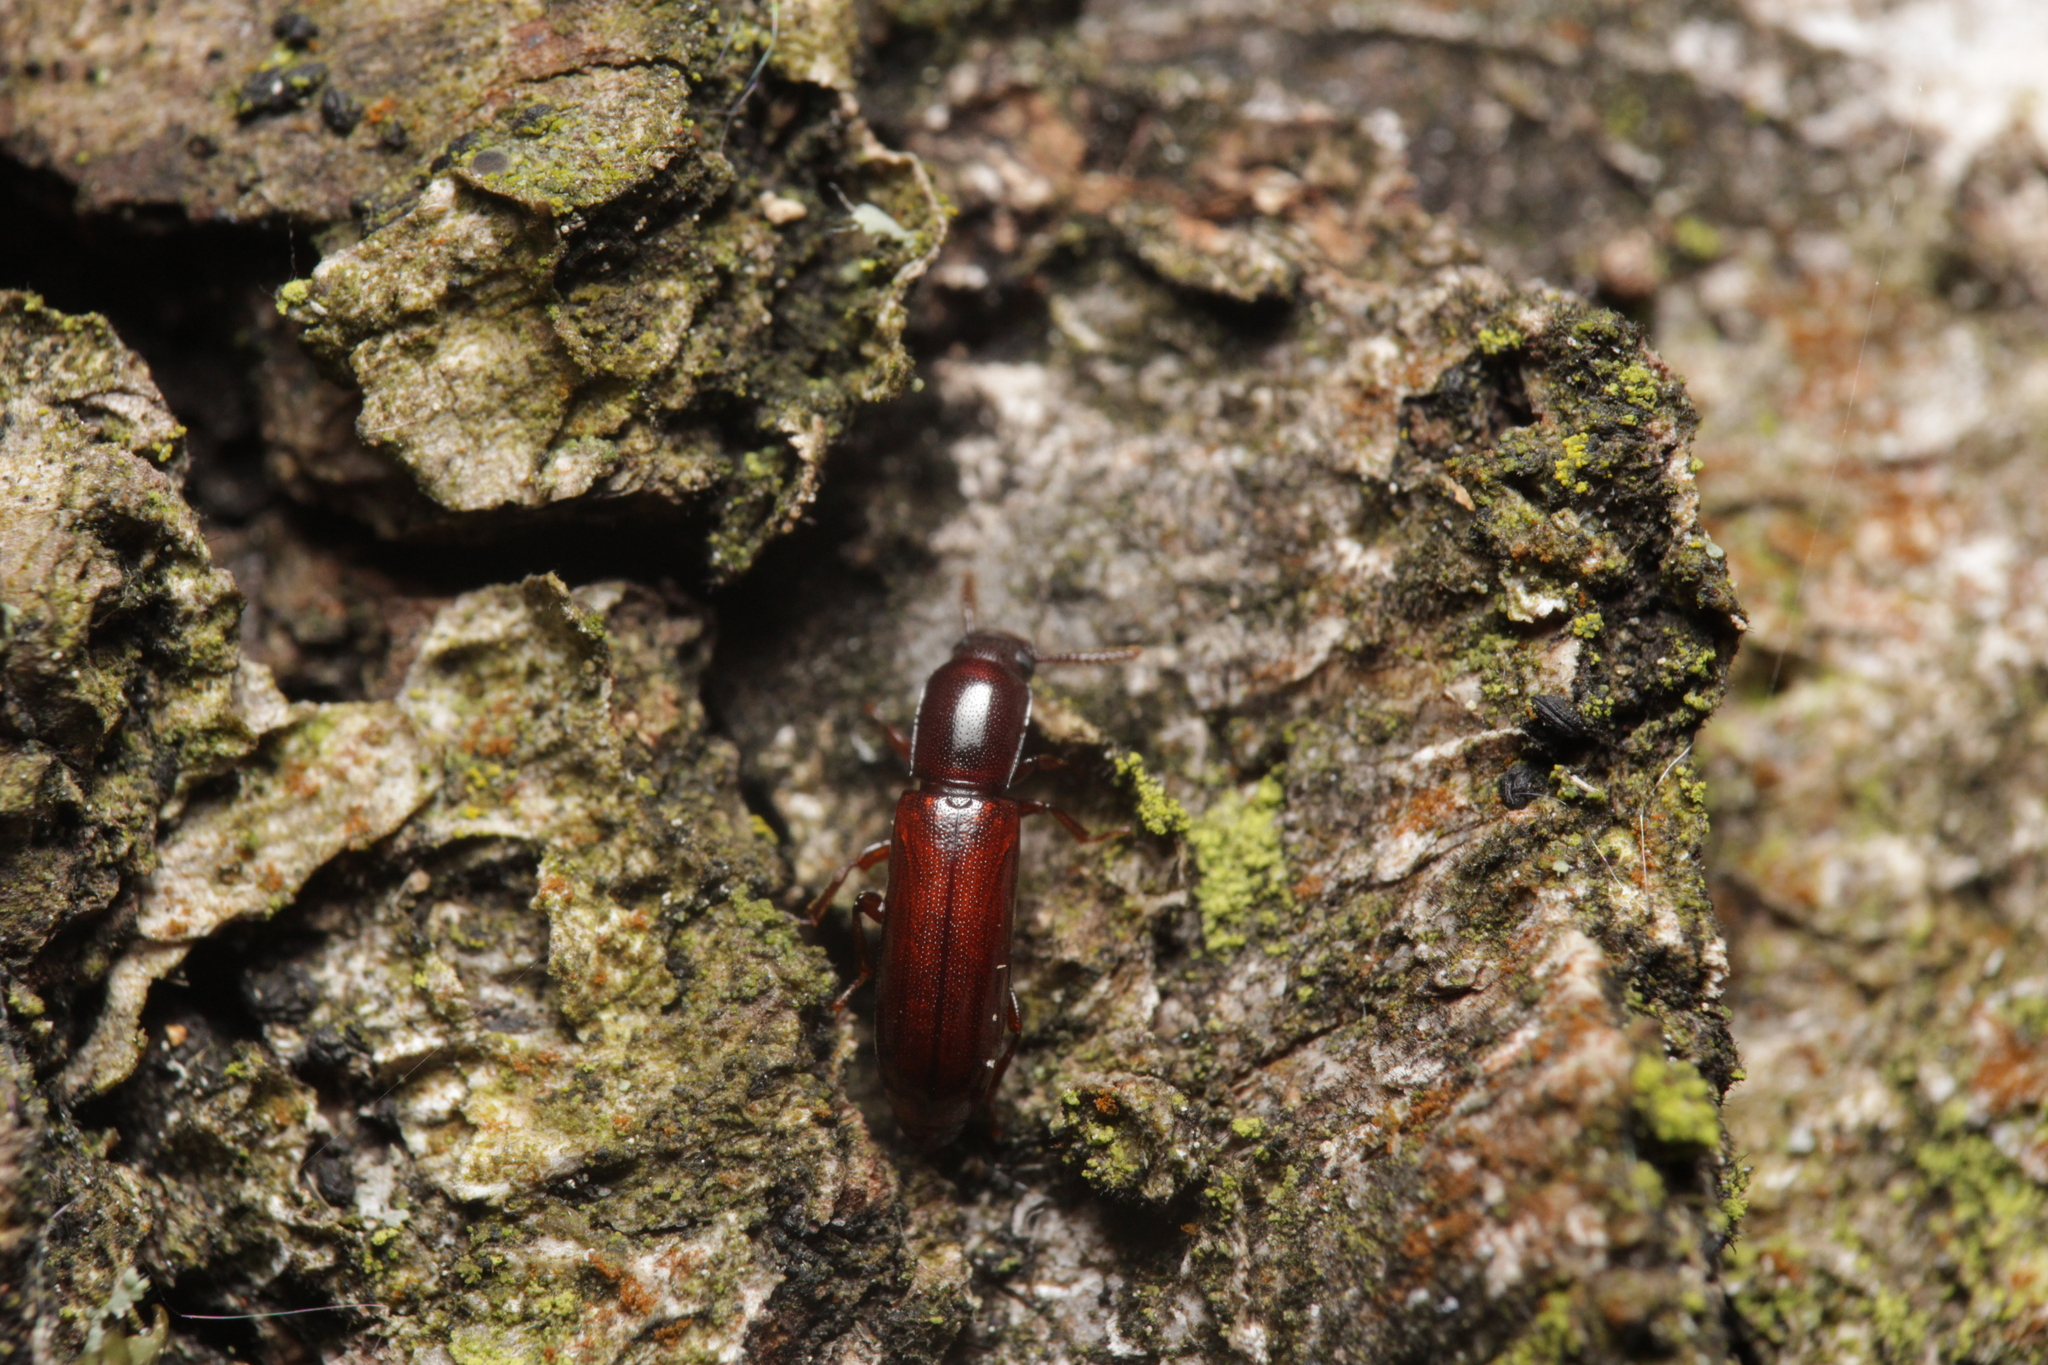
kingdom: Animalia
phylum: Arthropoda
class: Insecta
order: Coleoptera
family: Tenebrionidae
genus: Corticeus
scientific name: Corticeus unicolor
